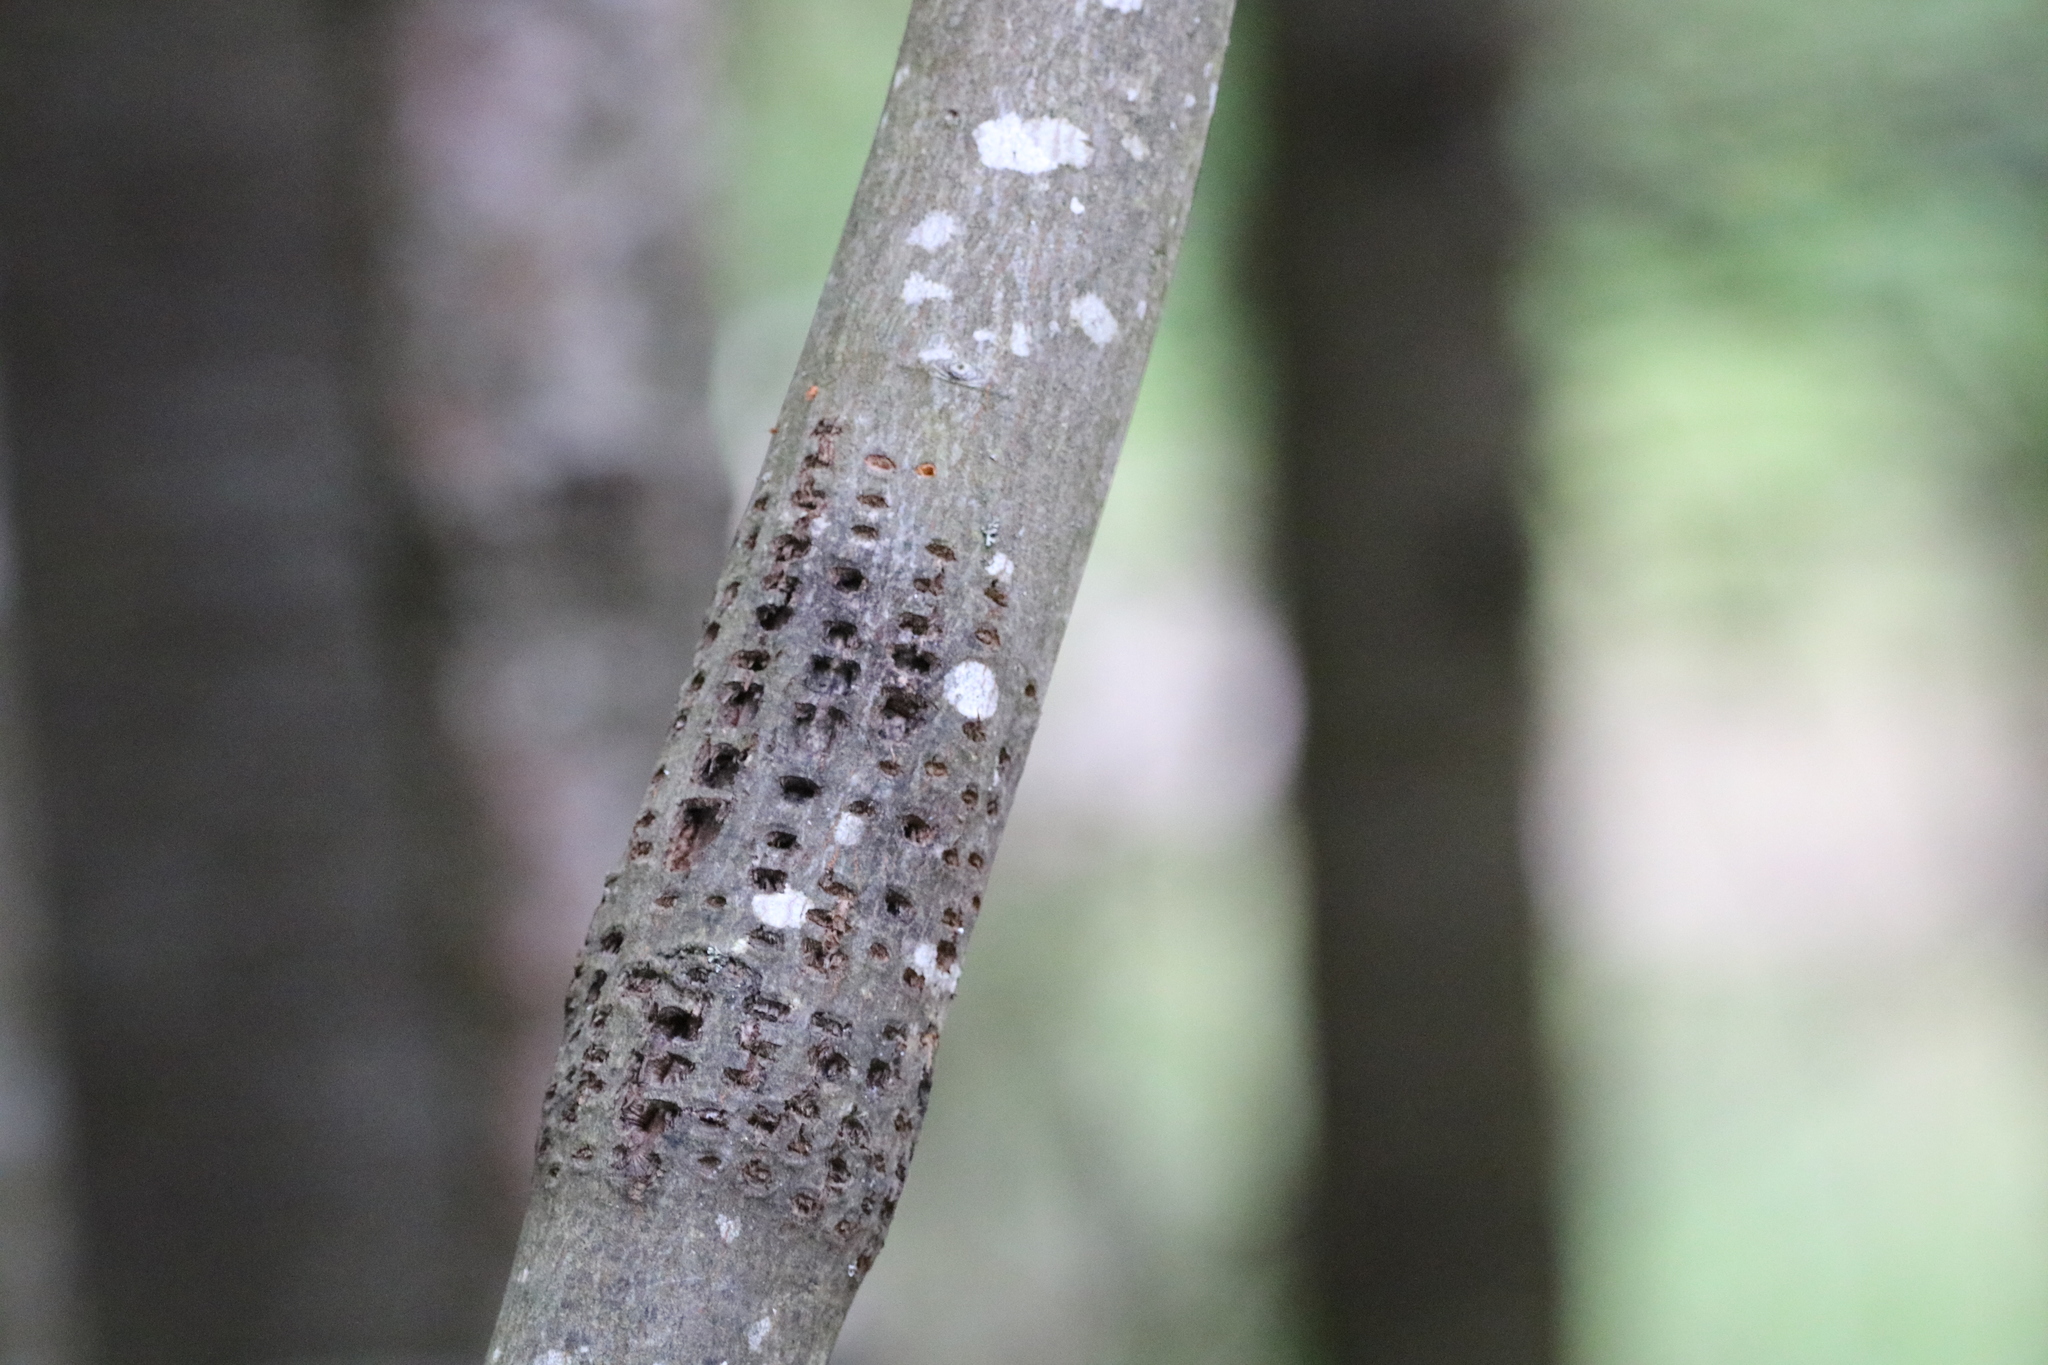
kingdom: Animalia
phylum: Chordata
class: Aves
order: Piciformes
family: Picidae
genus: Sphyrapicus
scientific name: Sphyrapicus varius
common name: Yellow-bellied sapsucker
